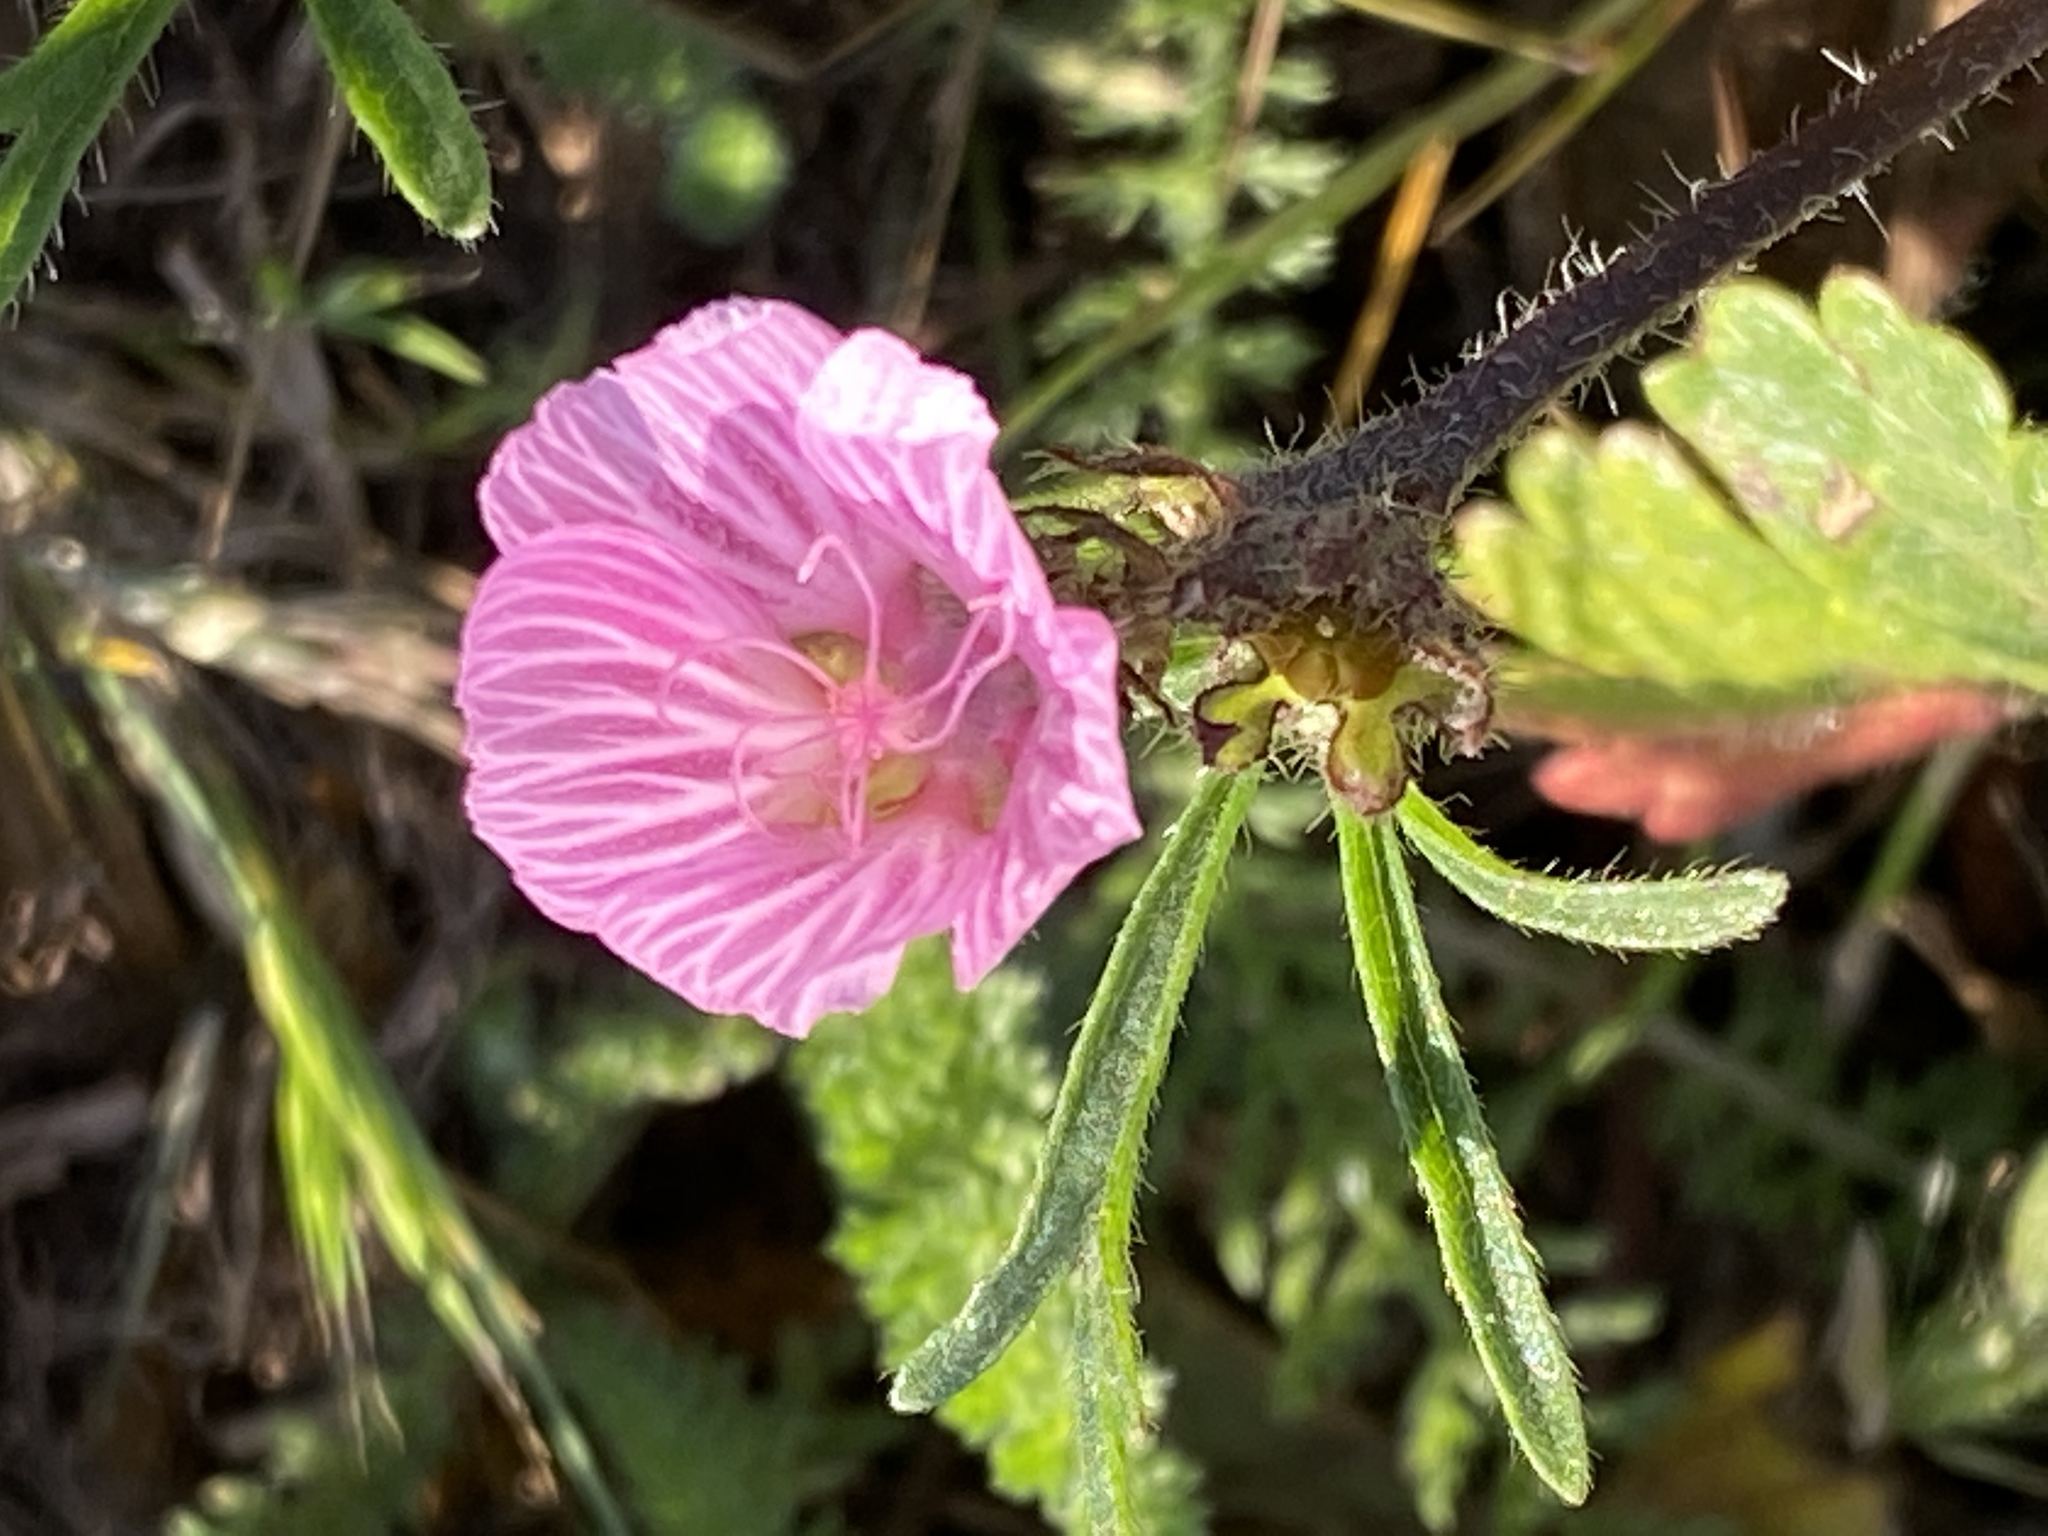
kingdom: Plantae
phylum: Tracheophyta
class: Magnoliopsida
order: Malvales
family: Malvaceae
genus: Sidalcea
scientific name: Sidalcea malviflora
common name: Greek mallow
